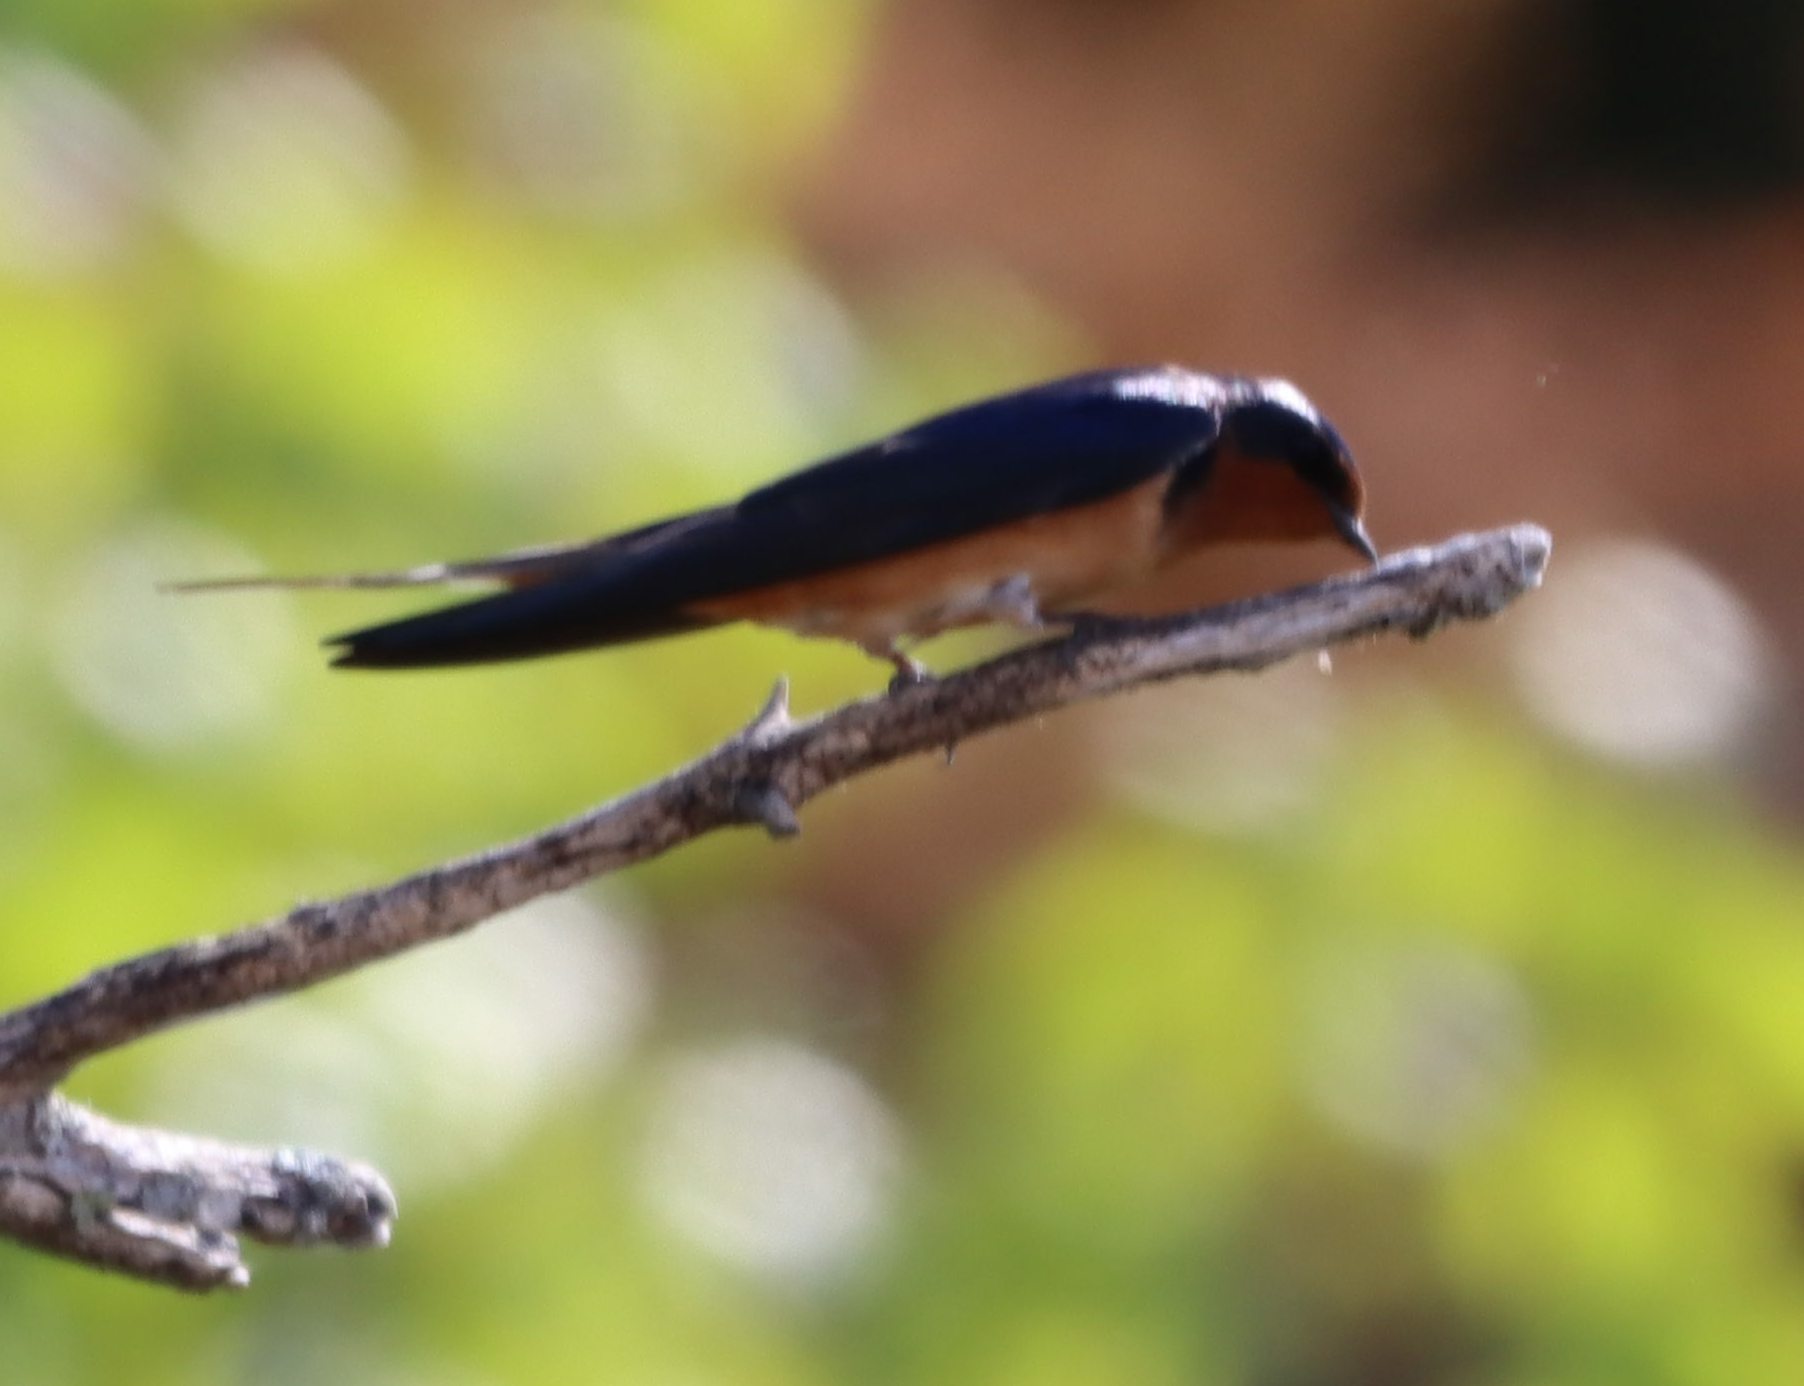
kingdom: Animalia
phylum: Chordata
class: Aves
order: Passeriformes
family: Hirundinidae
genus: Hirundo
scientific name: Hirundo rustica
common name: Barn swallow
